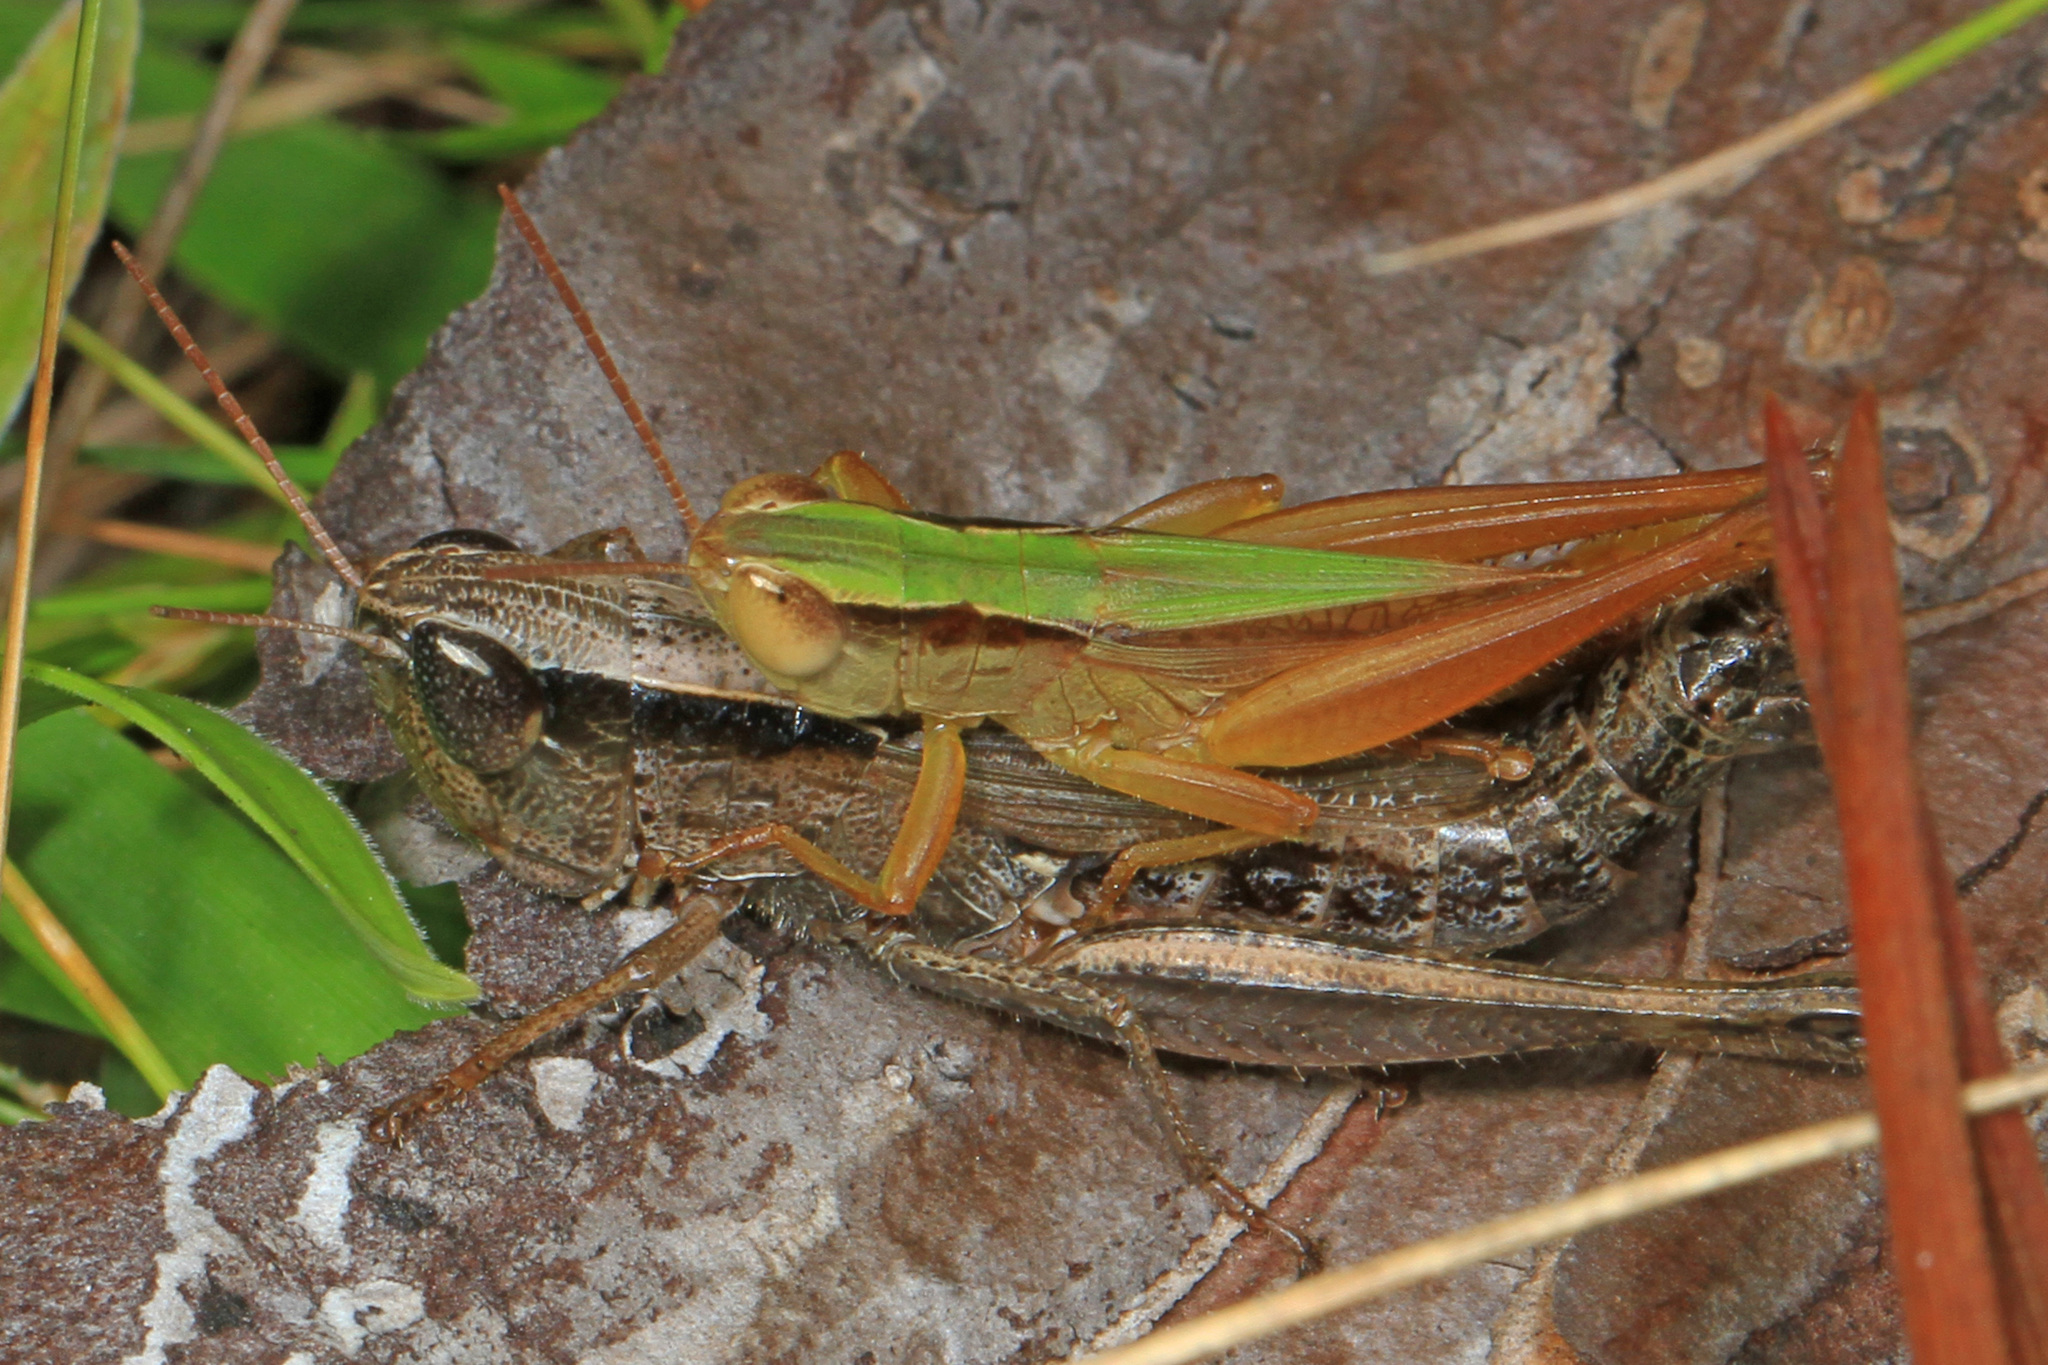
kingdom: Animalia
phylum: Arthropoda
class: Insecta
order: Orthoptera
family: Acrididae
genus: Dichromorpha
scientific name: Dichromorpha elegans
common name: Elegant grasshopper
